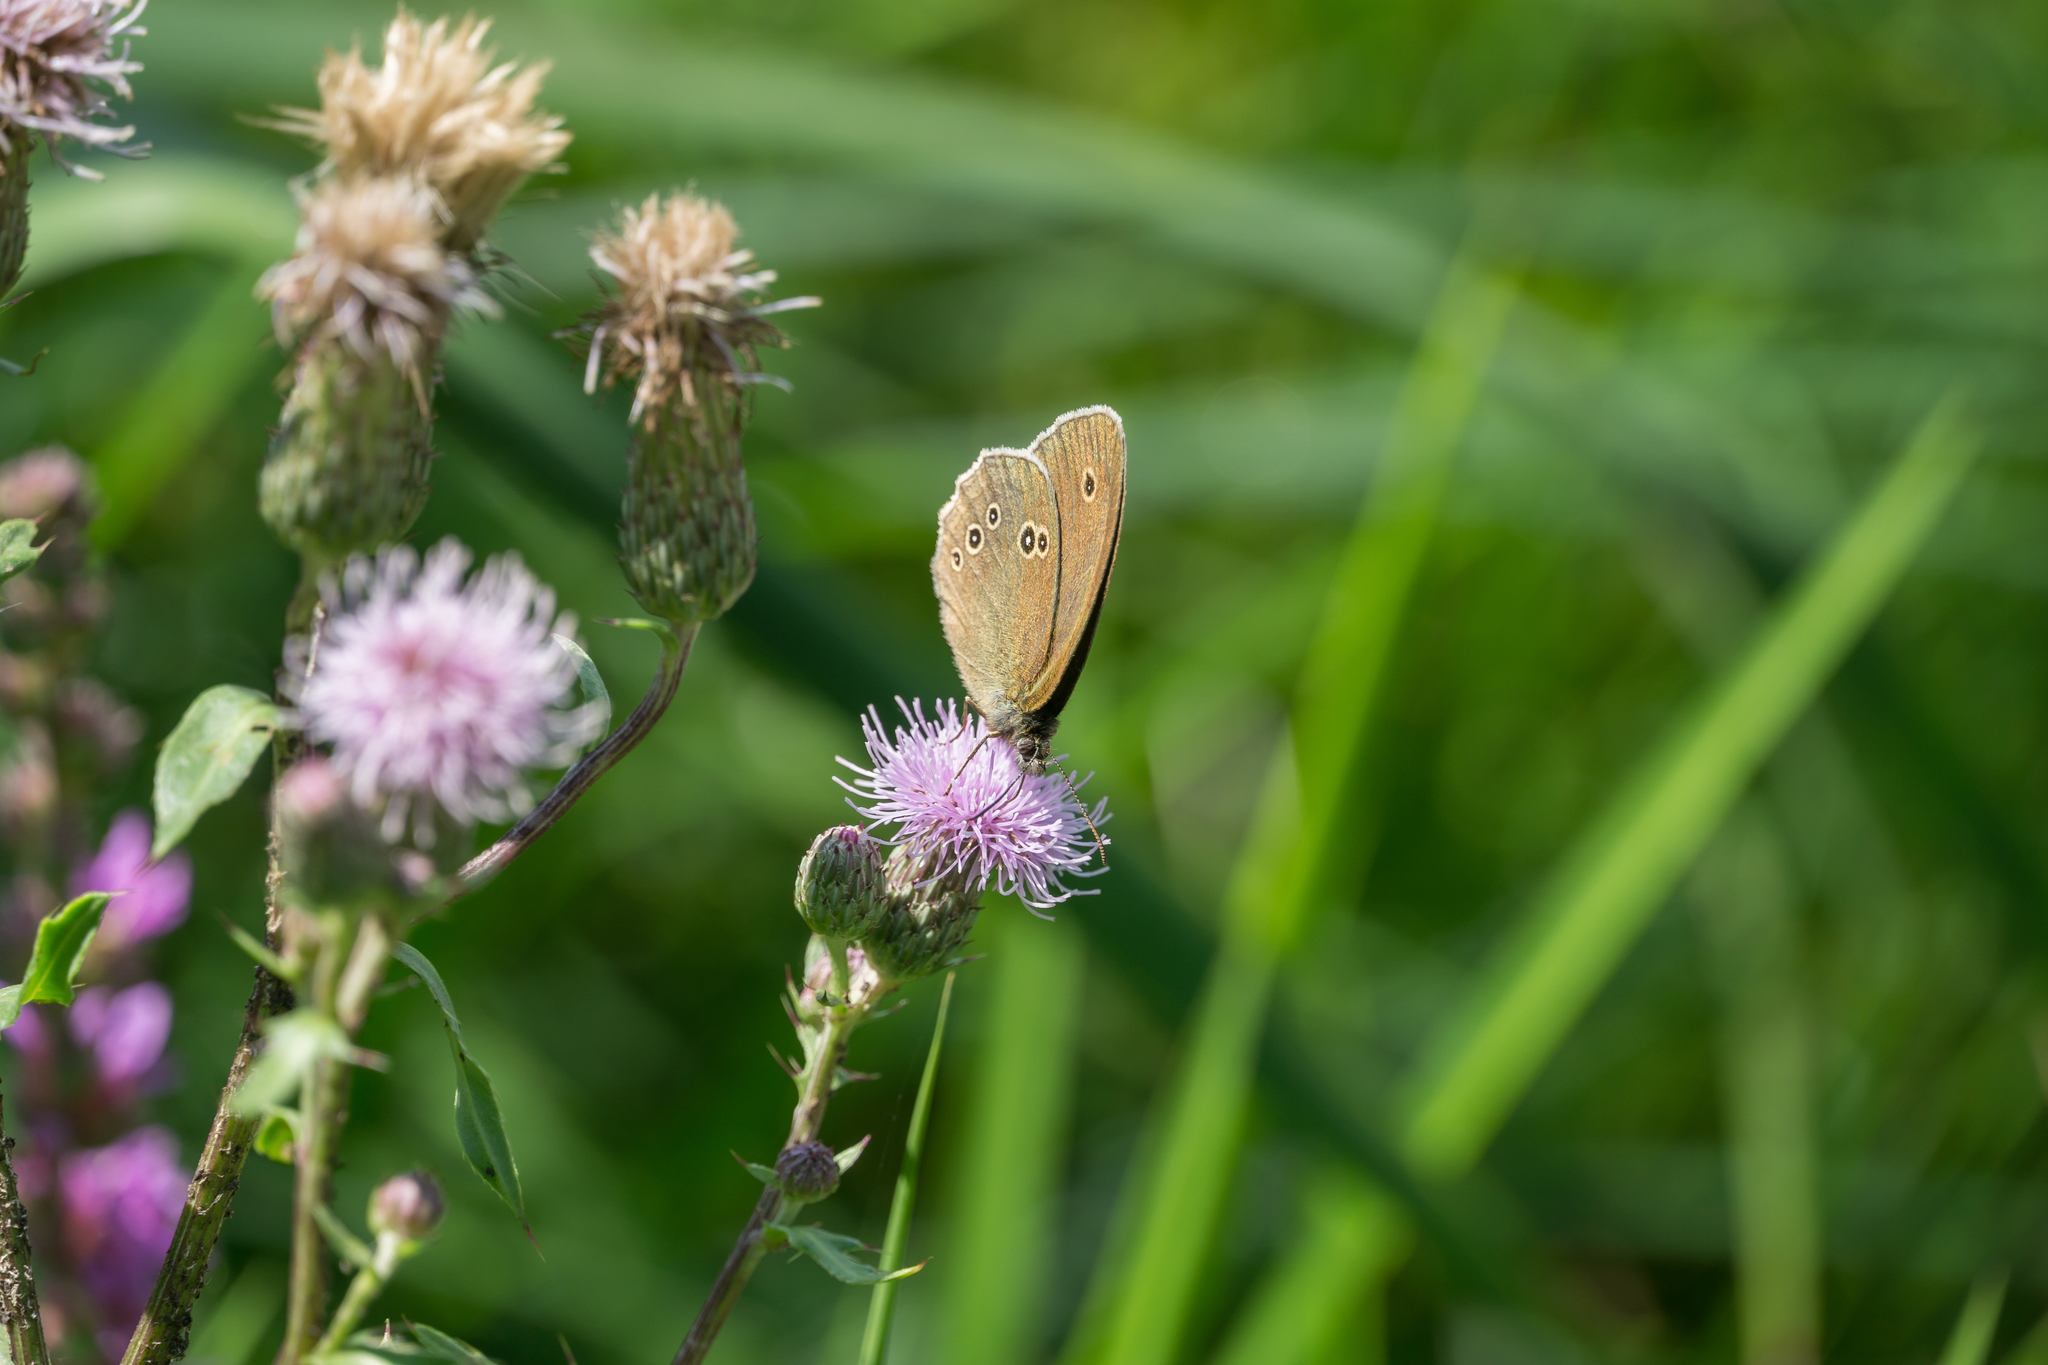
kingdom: Animalia
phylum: Arthropoda
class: Insecta
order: Lepidoptera
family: Nymphalidae
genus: Aphantopus
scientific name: Aphantopus hyperantus
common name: Ringlet
